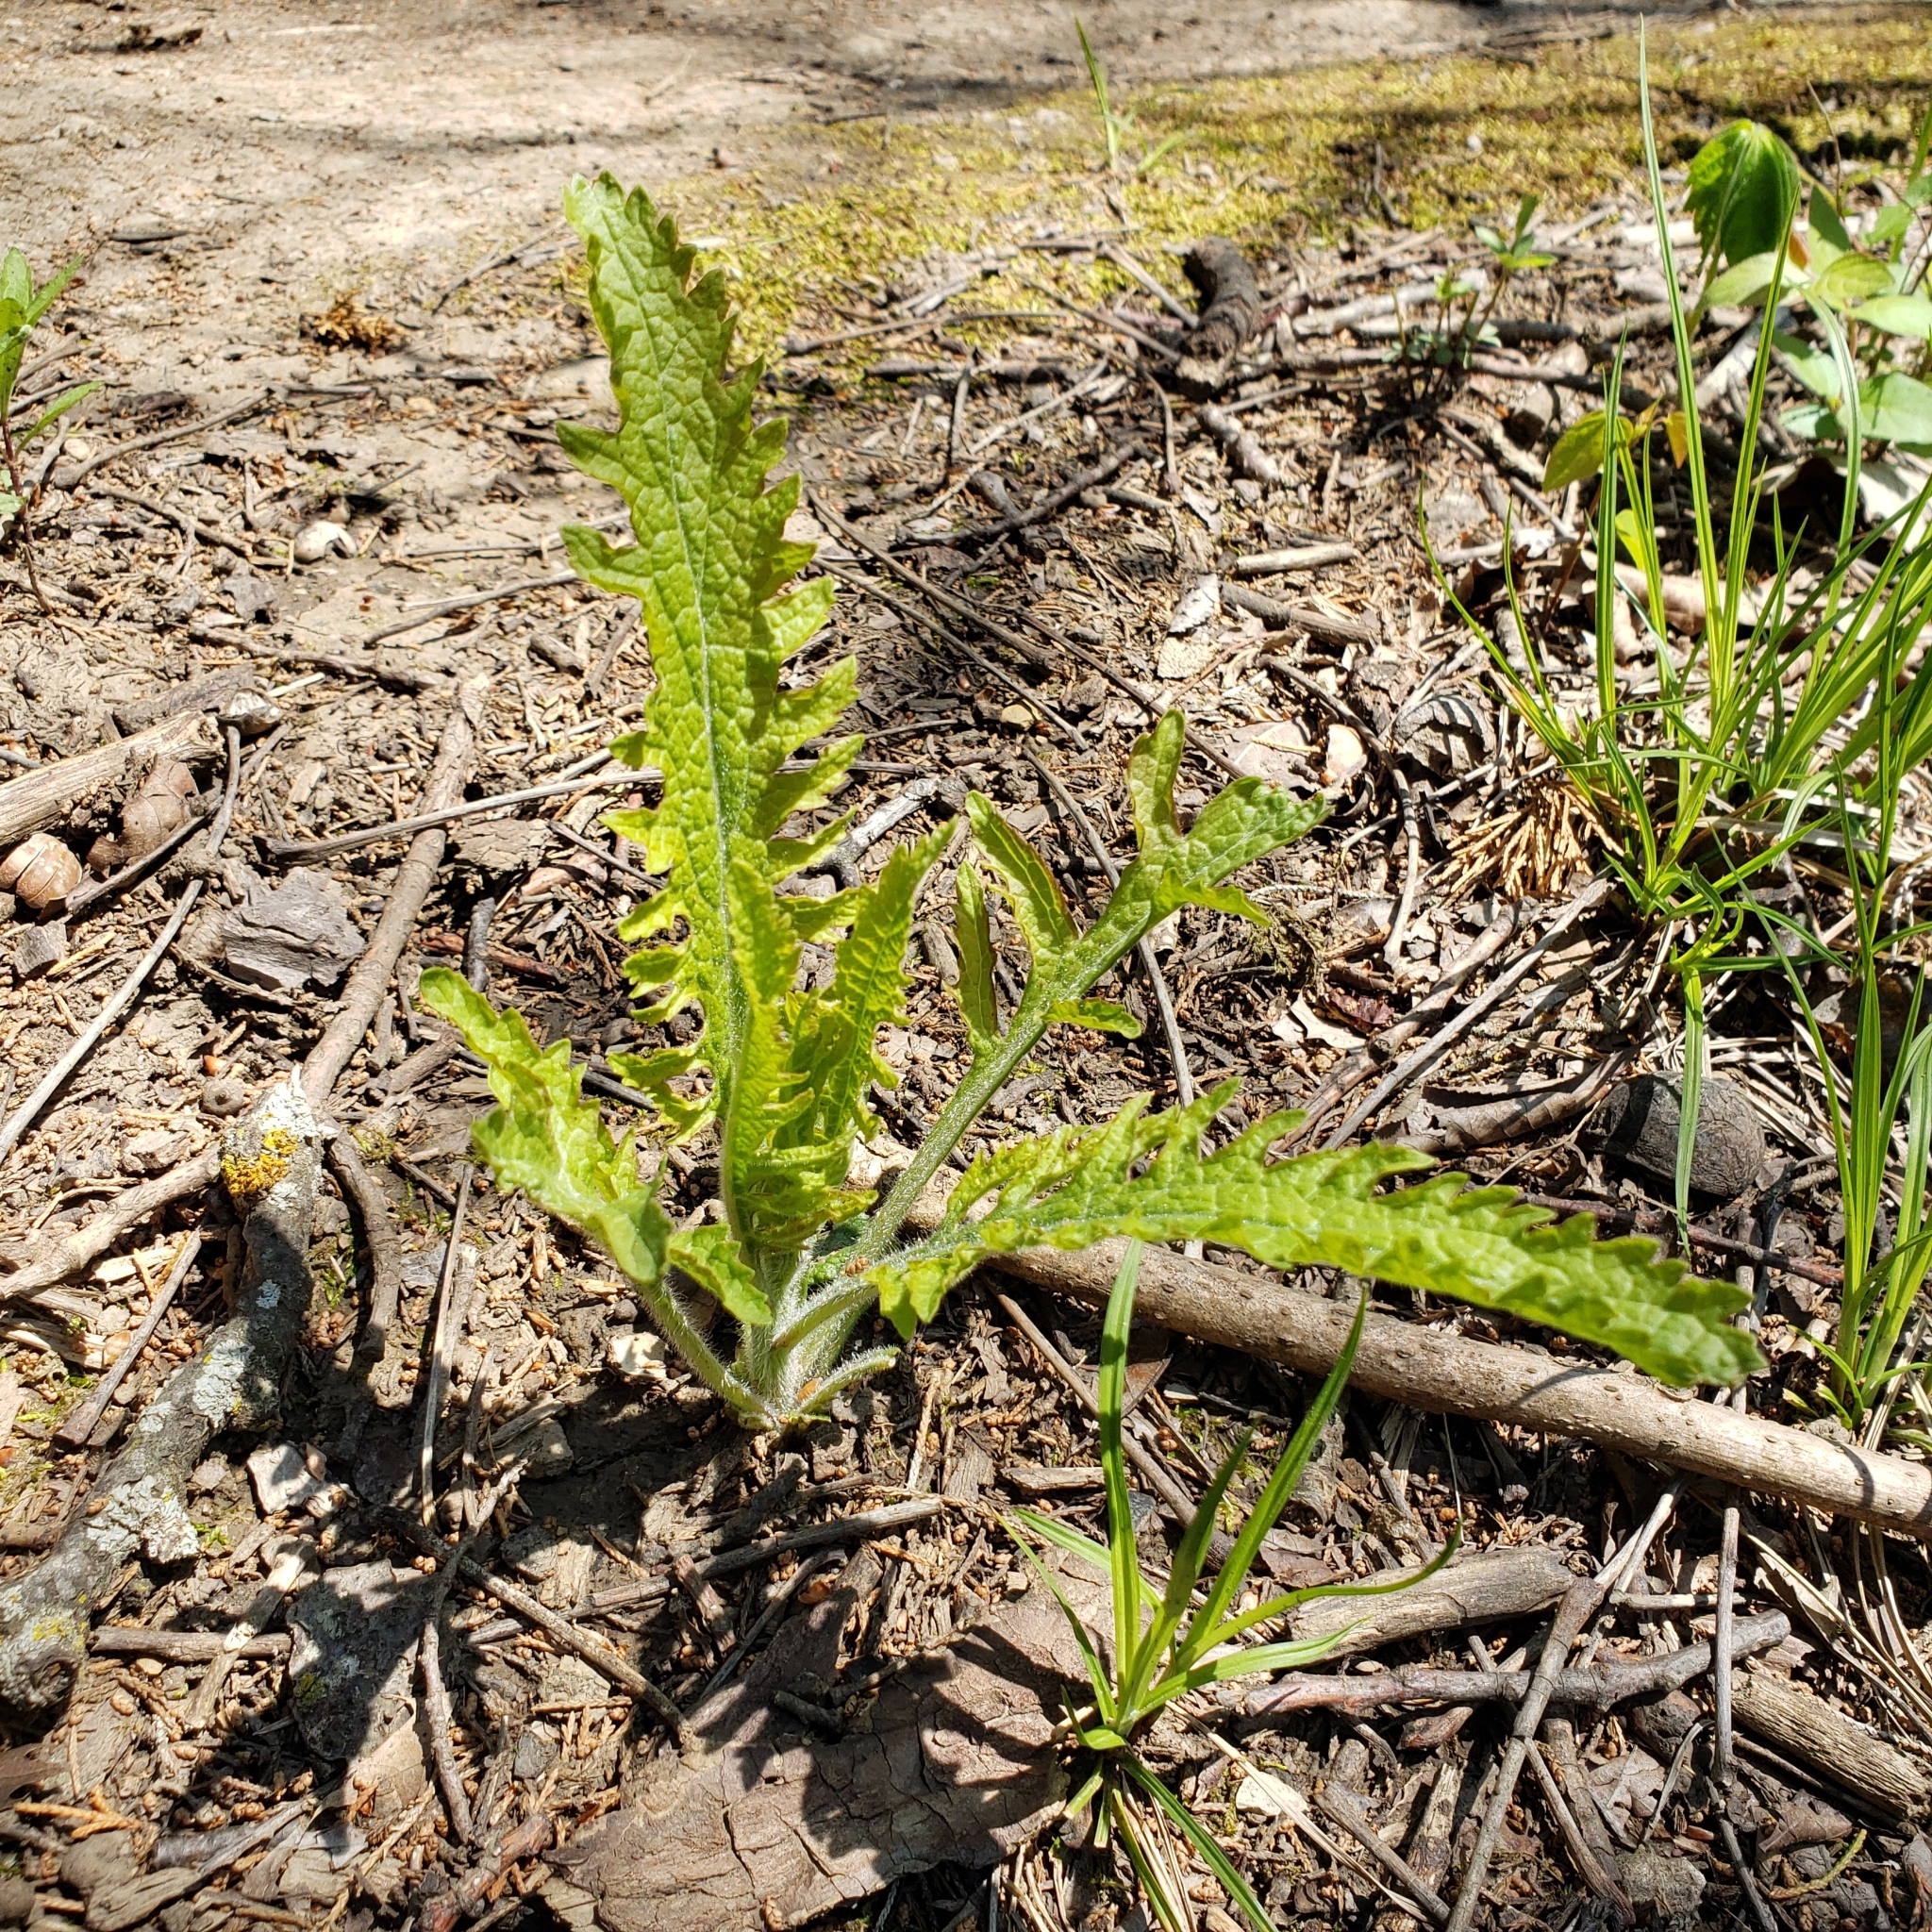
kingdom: Plantae
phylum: Tracheophyta
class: Magnoliopsida
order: Dipsacales
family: Caprifoliaceae
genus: Dipsacus
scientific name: Dipsacus laciniatus
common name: Cut-leaved teasel
